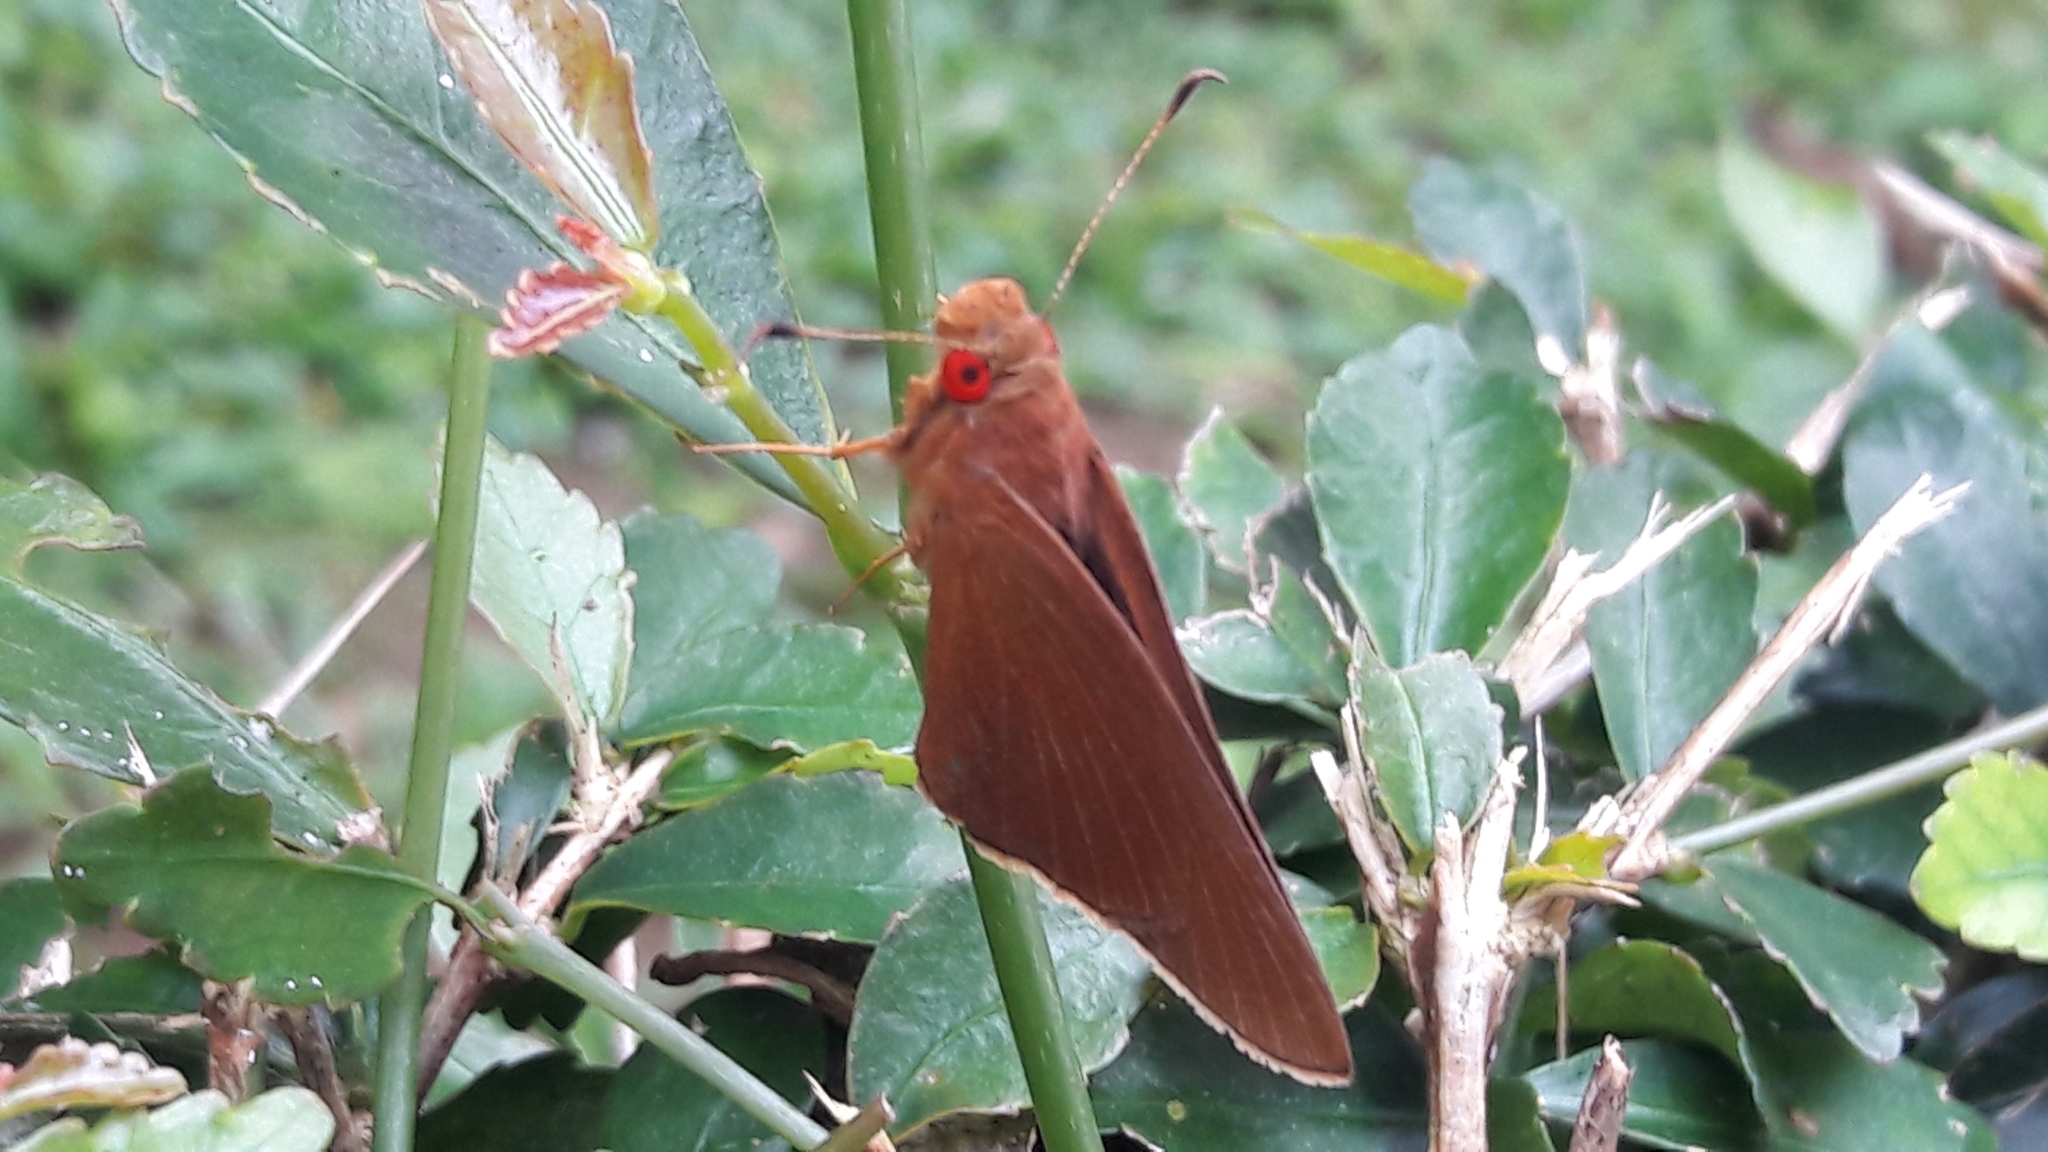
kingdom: Animalia
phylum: Arthropoda
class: Insecta
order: Lepidoptera
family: Hesperiidae
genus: Matapa
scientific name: Matapa aria
